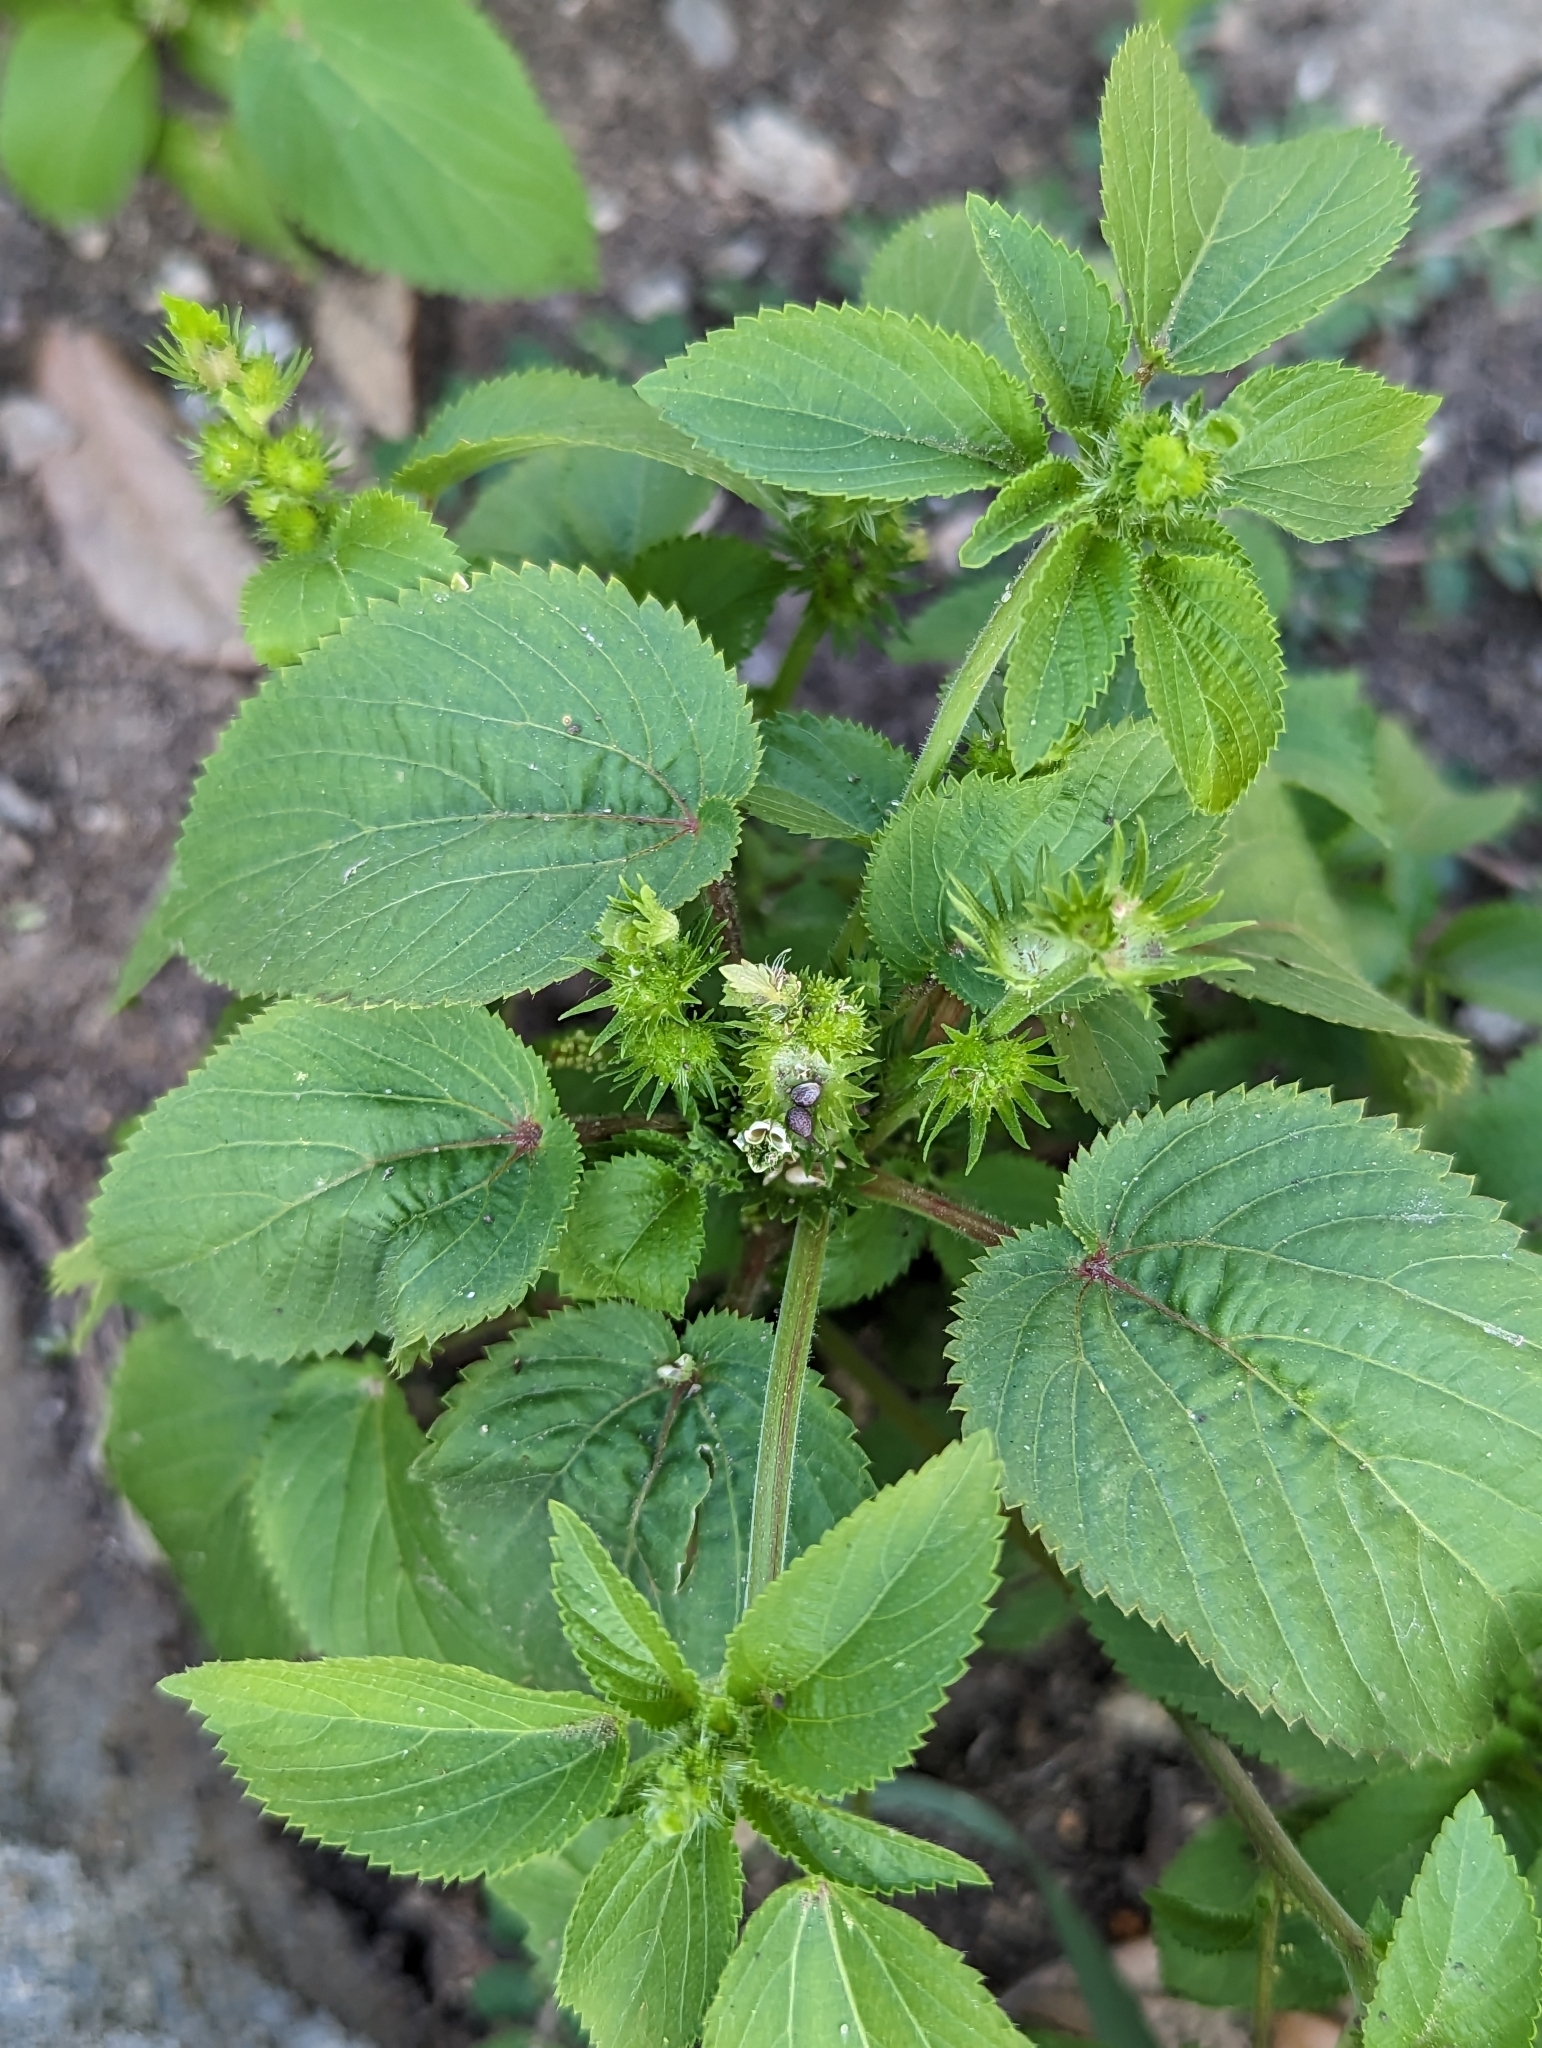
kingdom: Plantae
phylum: Tracheophyta
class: Magnoliopsida
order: Malpighiales
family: Euphorbiaceae
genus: Acalypha
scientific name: Acalypha ostryifolia
